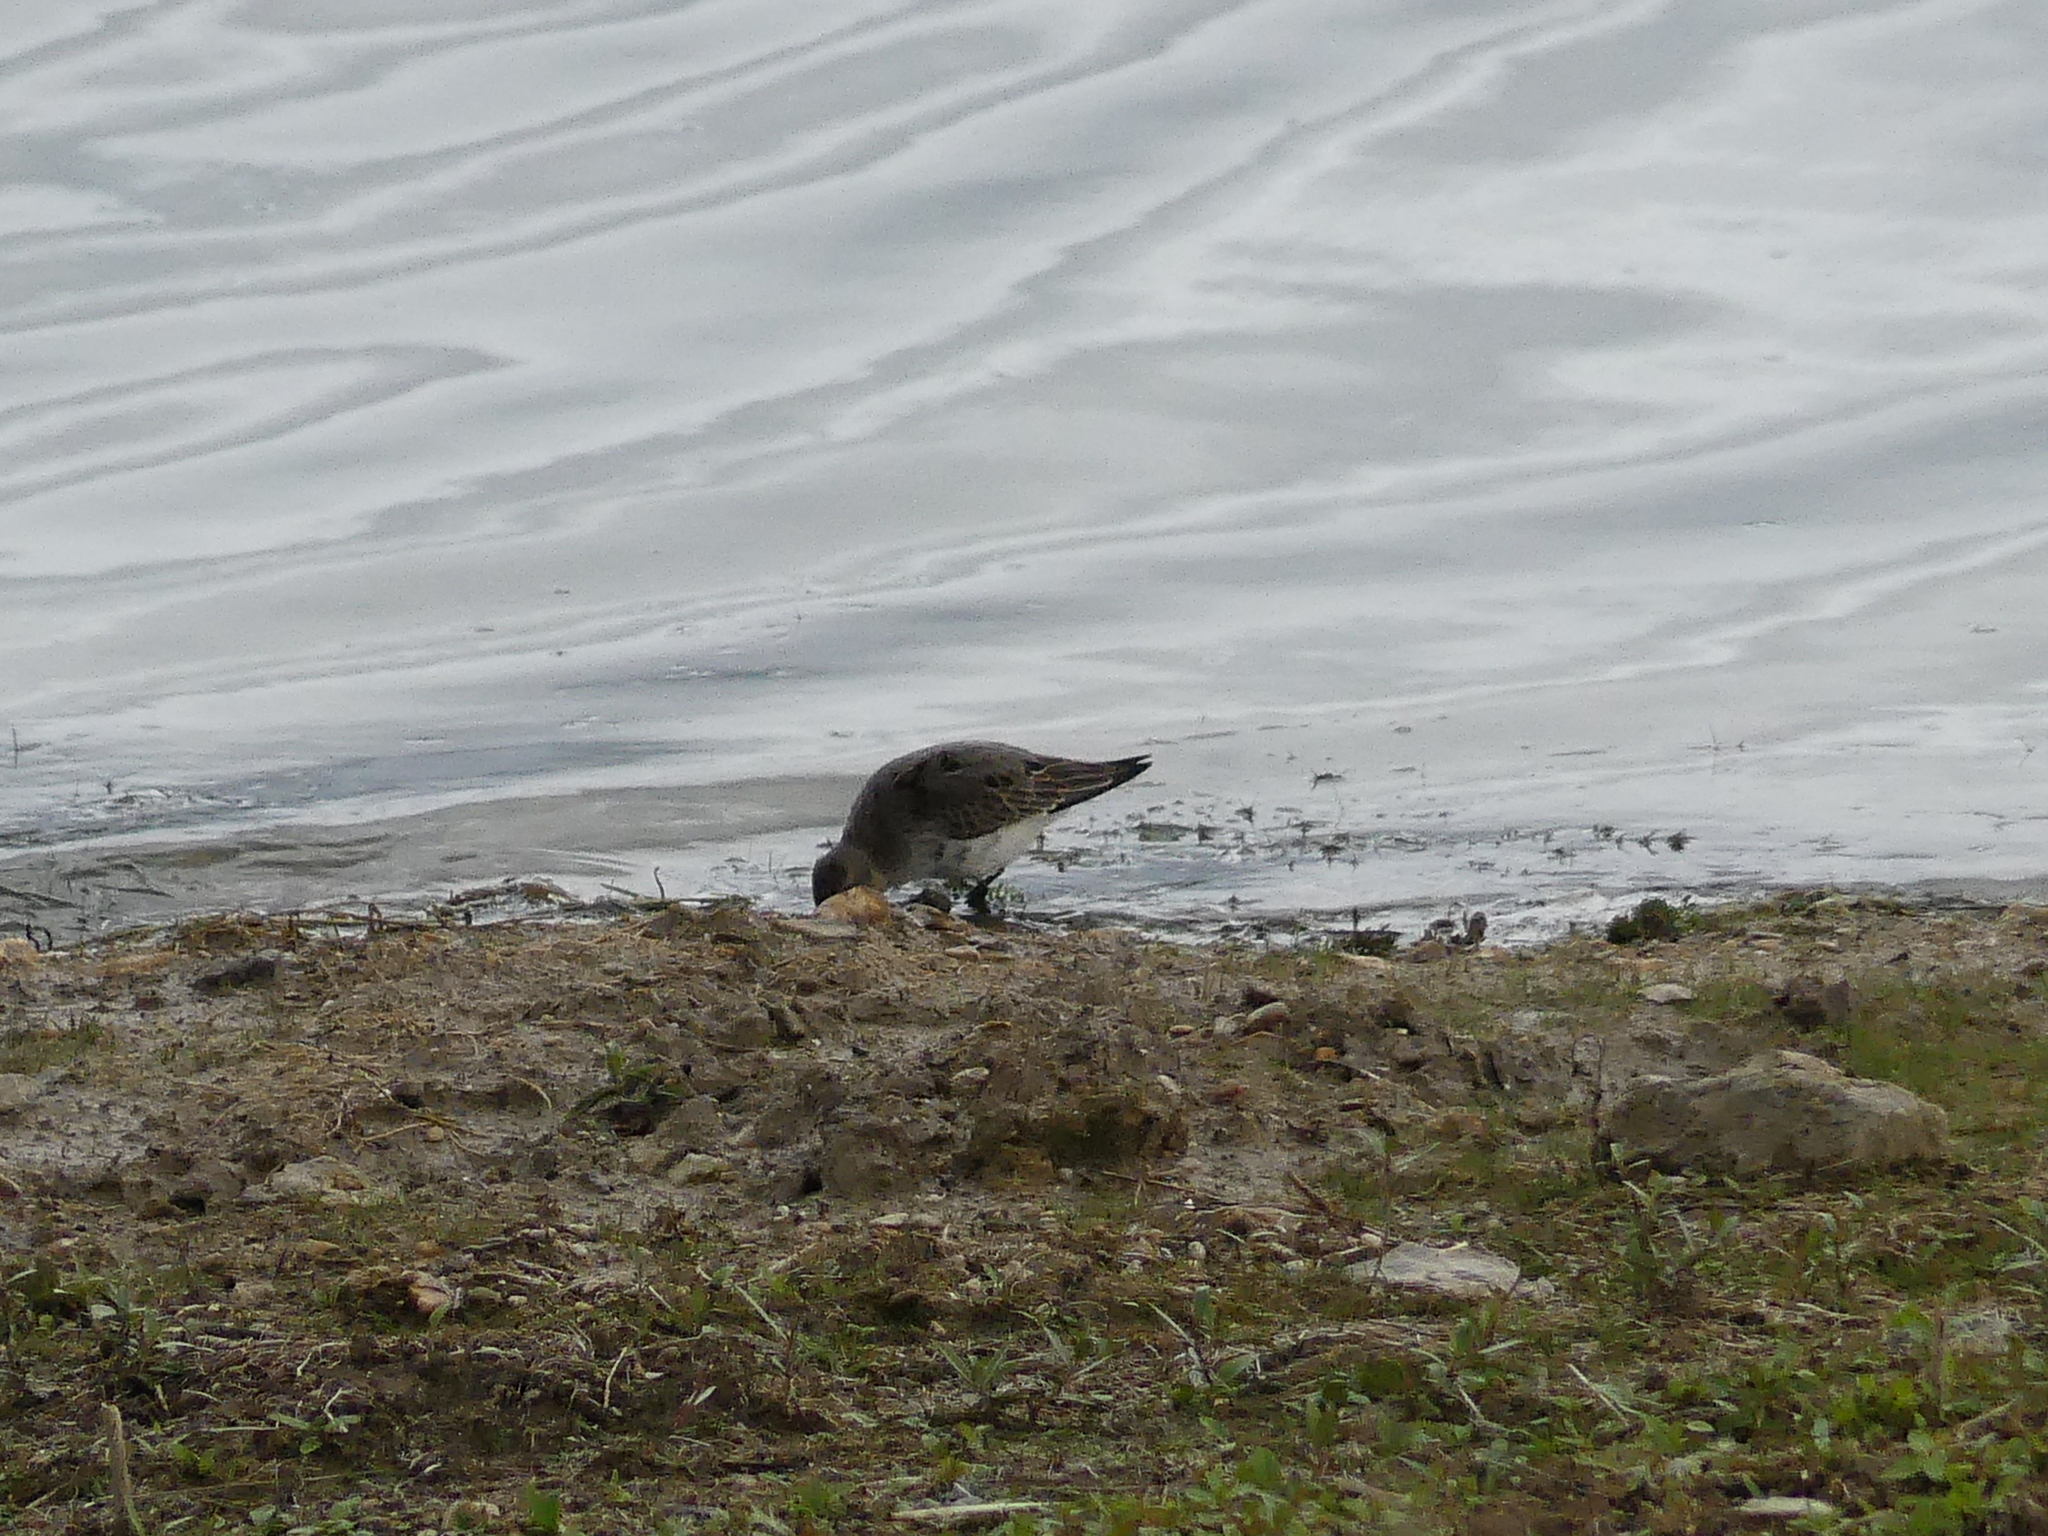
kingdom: Animalia
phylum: Chordata
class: Aves
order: Charadriiformes
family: Scolopacidae
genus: Calidris
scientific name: Calidris alpina
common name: Dunlin
